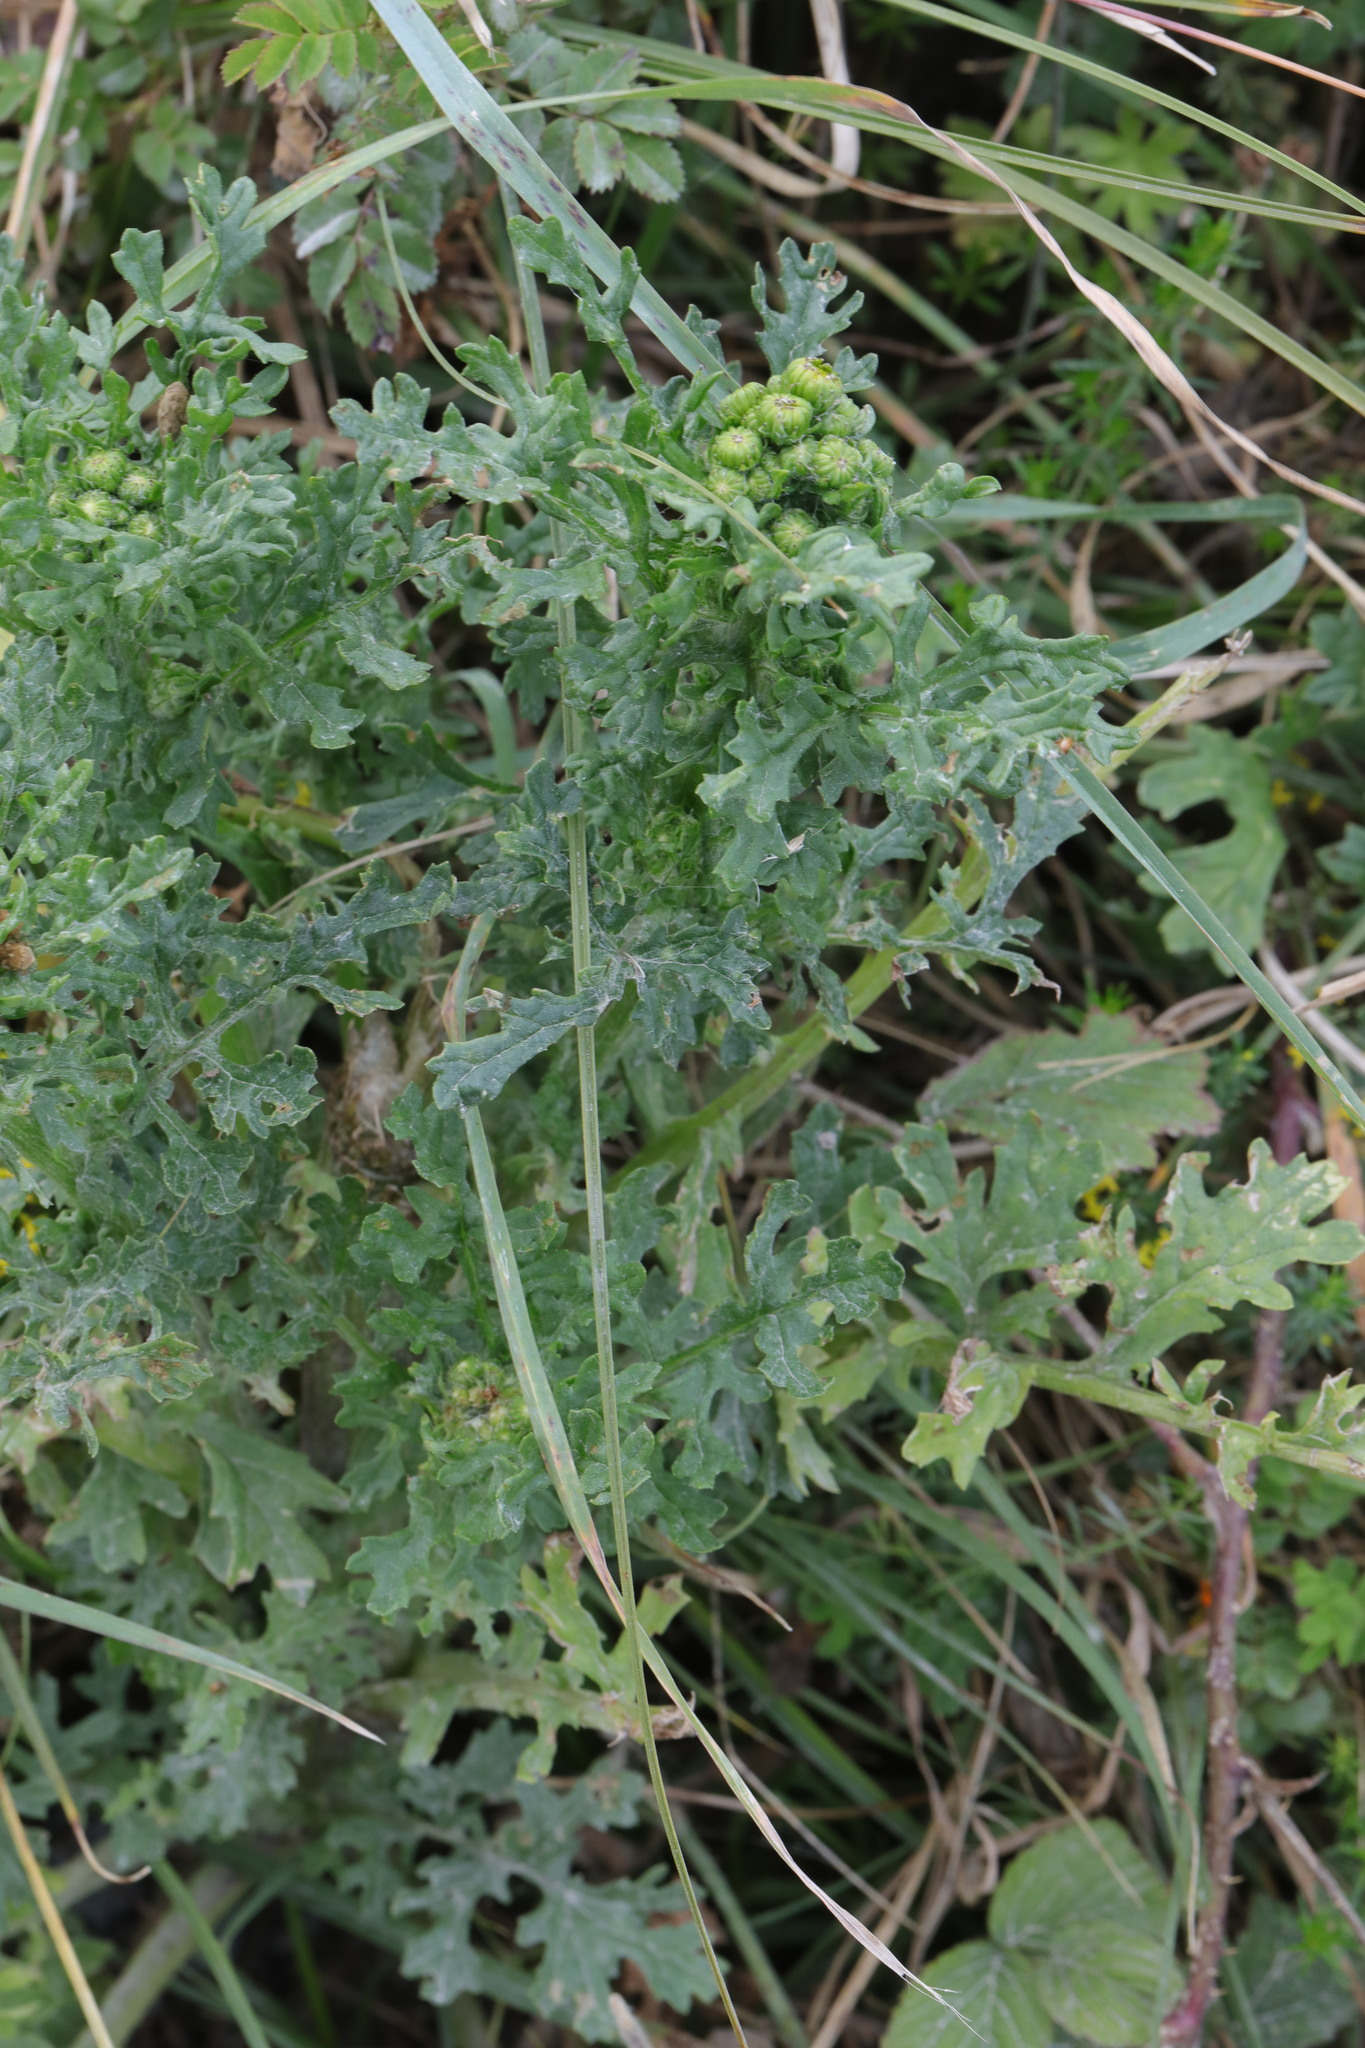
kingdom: Plantae
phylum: Tracheophyta
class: Magnoliopsida
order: Asterales
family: Asteraceae
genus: Jacobaea
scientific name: Jacobaea vulgaris
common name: Stinking willie
